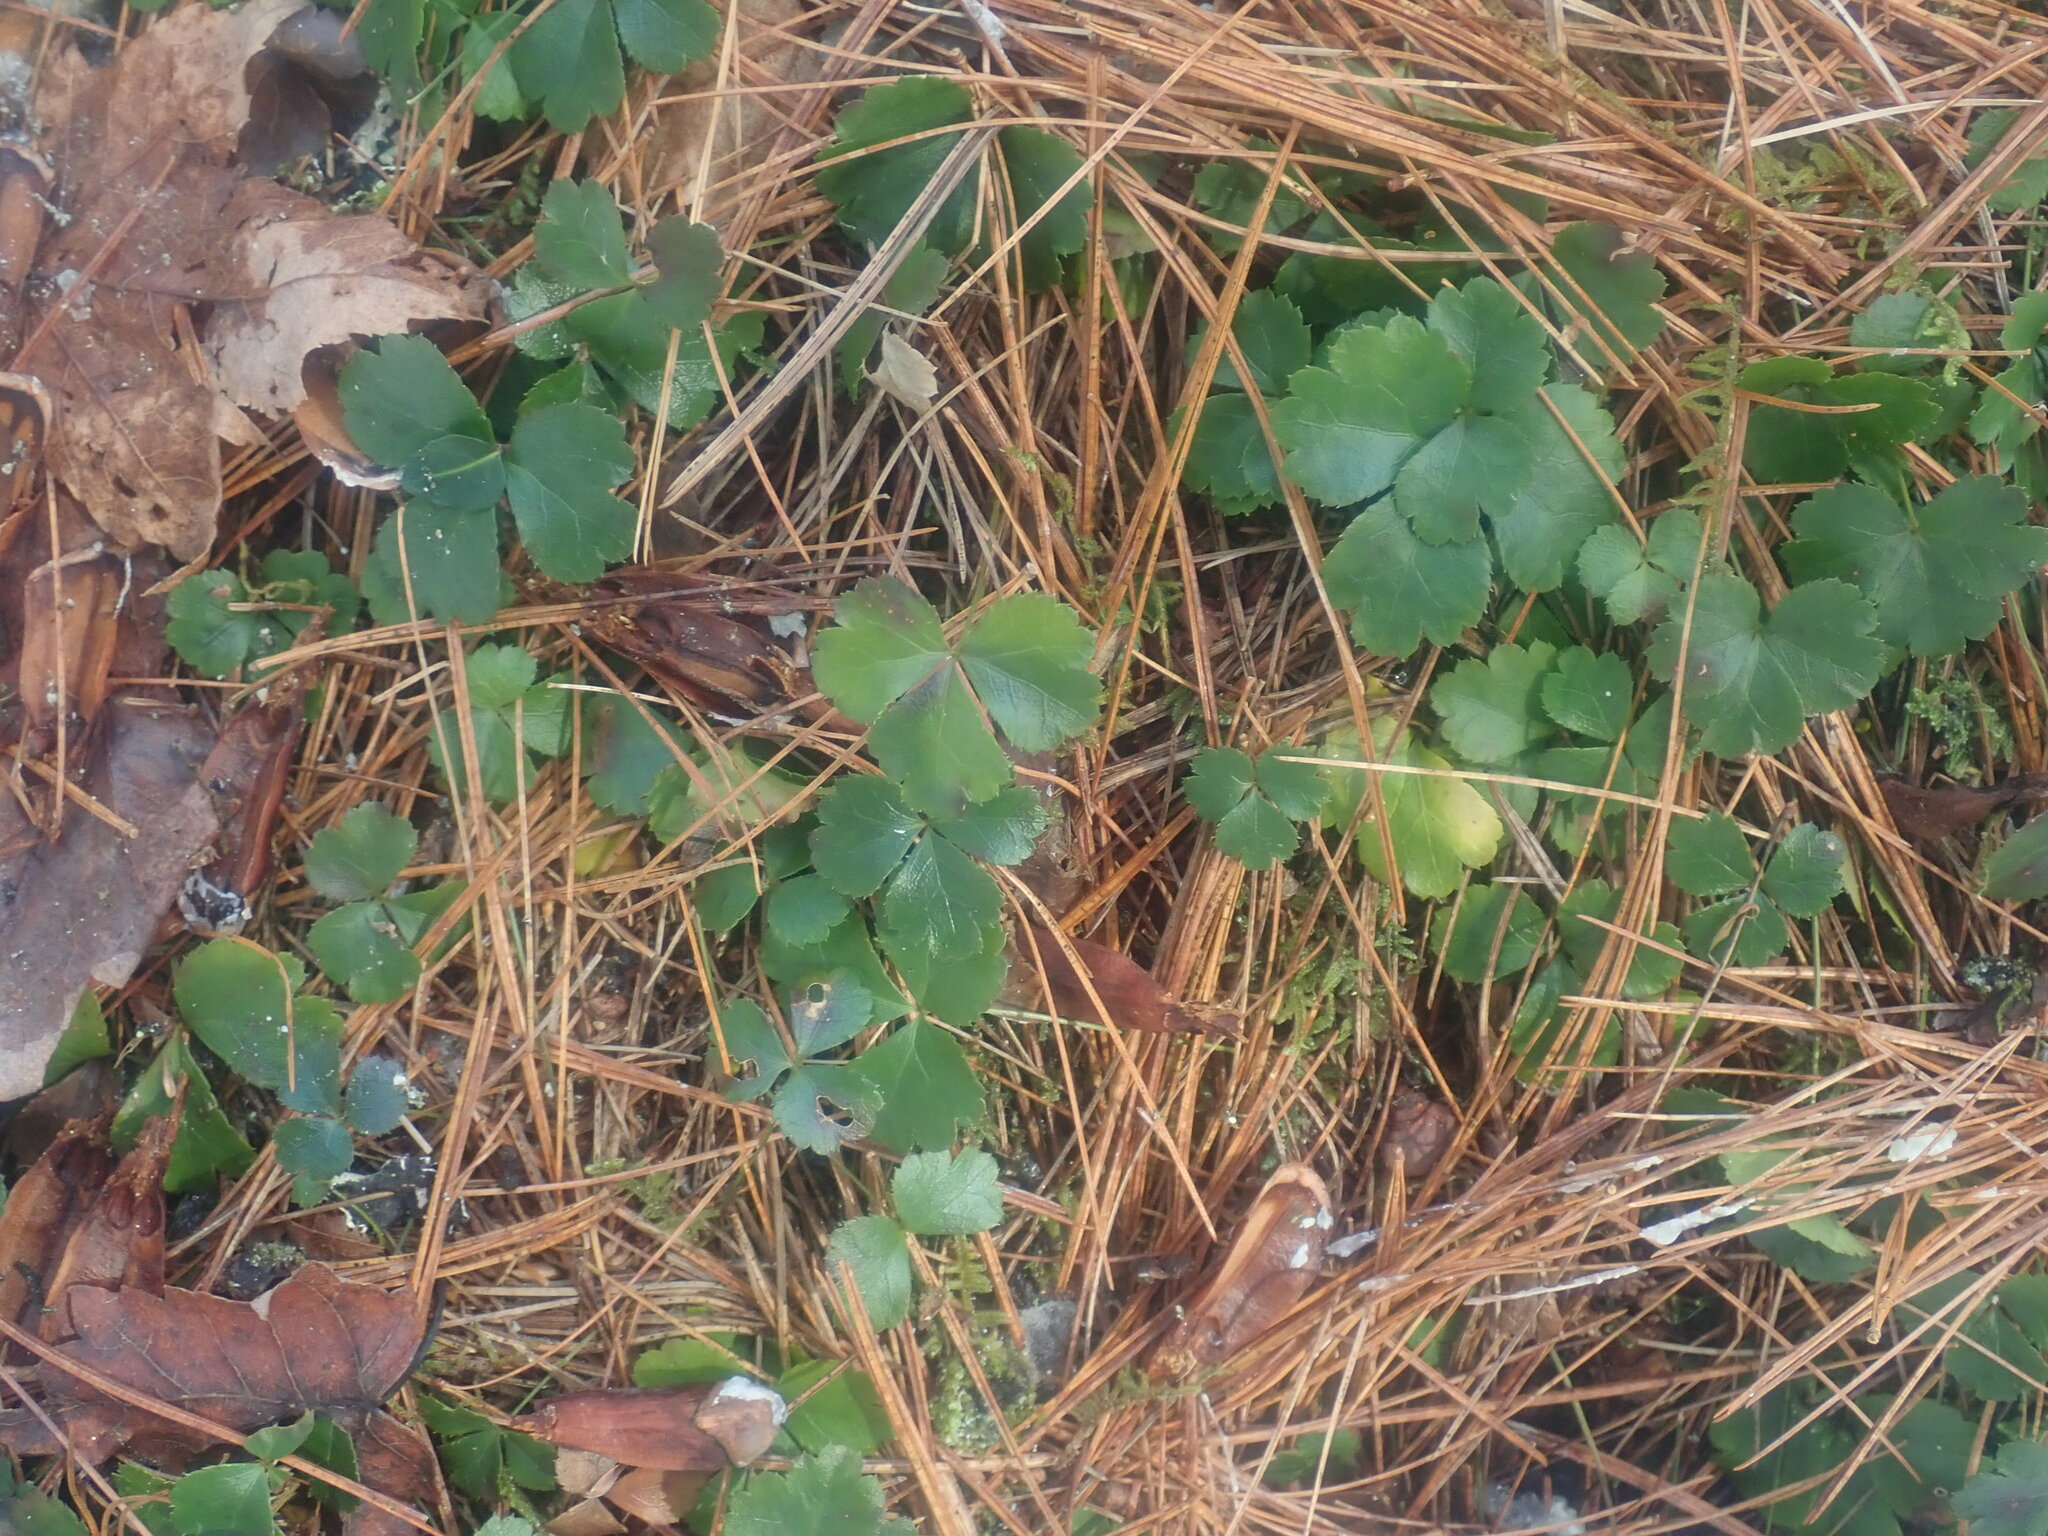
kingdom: Plantae
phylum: Tracheophyta
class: Magnoliopsida
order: Ranunculales
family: Ranunculaceae
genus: Coptis
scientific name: Coptis trifolia
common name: Canker-root
